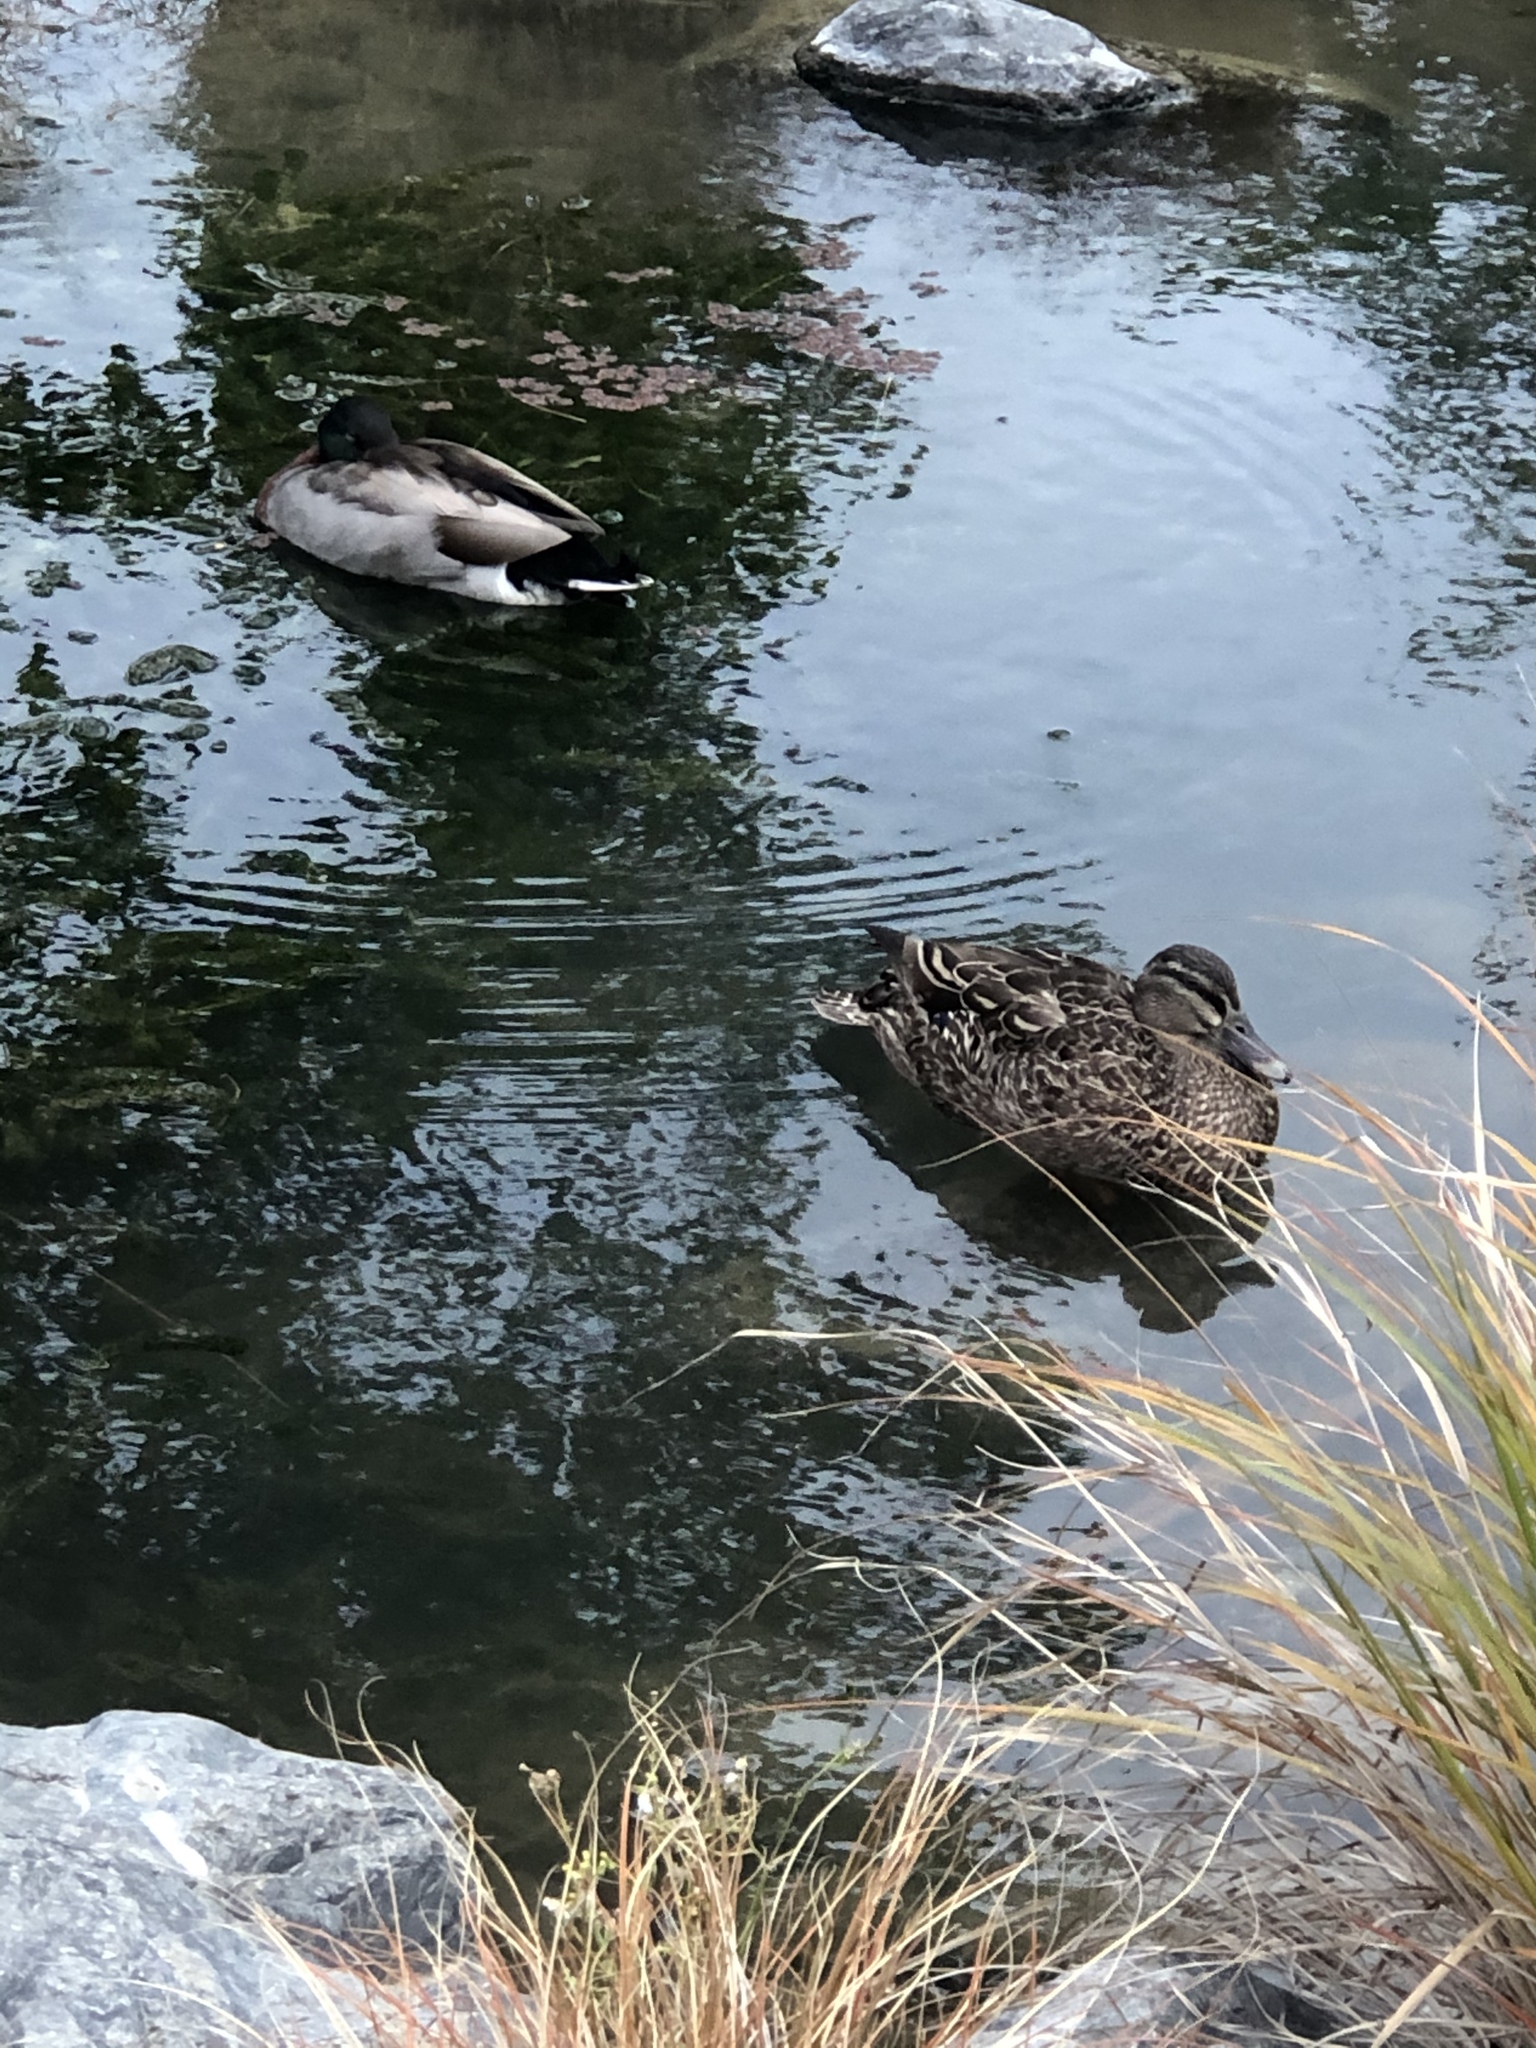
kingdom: Animalia
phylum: Chordata
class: Aves
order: Anseriformes
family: Anatidae
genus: Anas
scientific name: Anas
